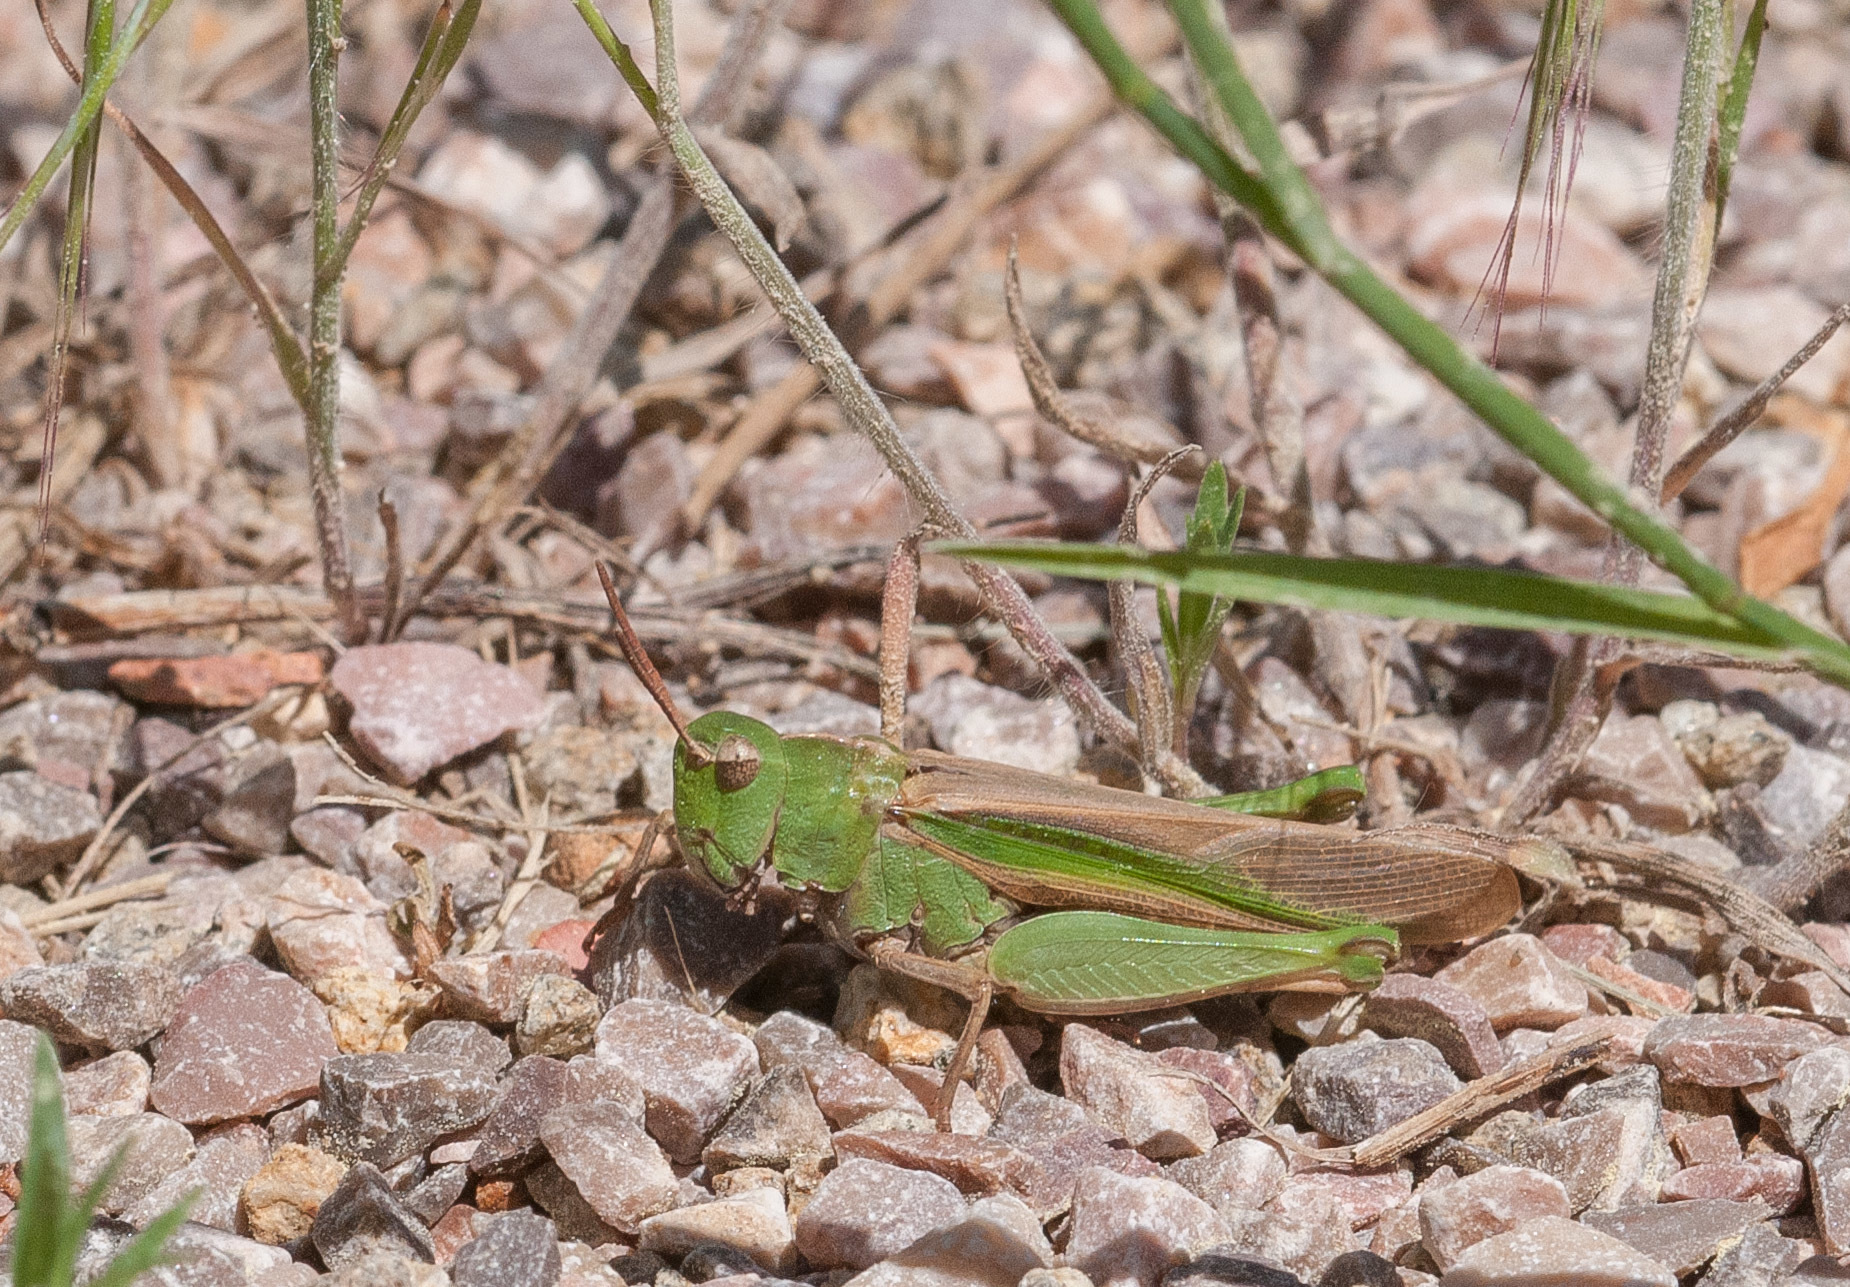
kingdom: Animalia
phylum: Arthropoda
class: Insecta
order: Orthoptera
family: Acrididae
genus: Chortophaga
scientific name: Chortophaga viridifasciata
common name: Green-striped grasshopper
